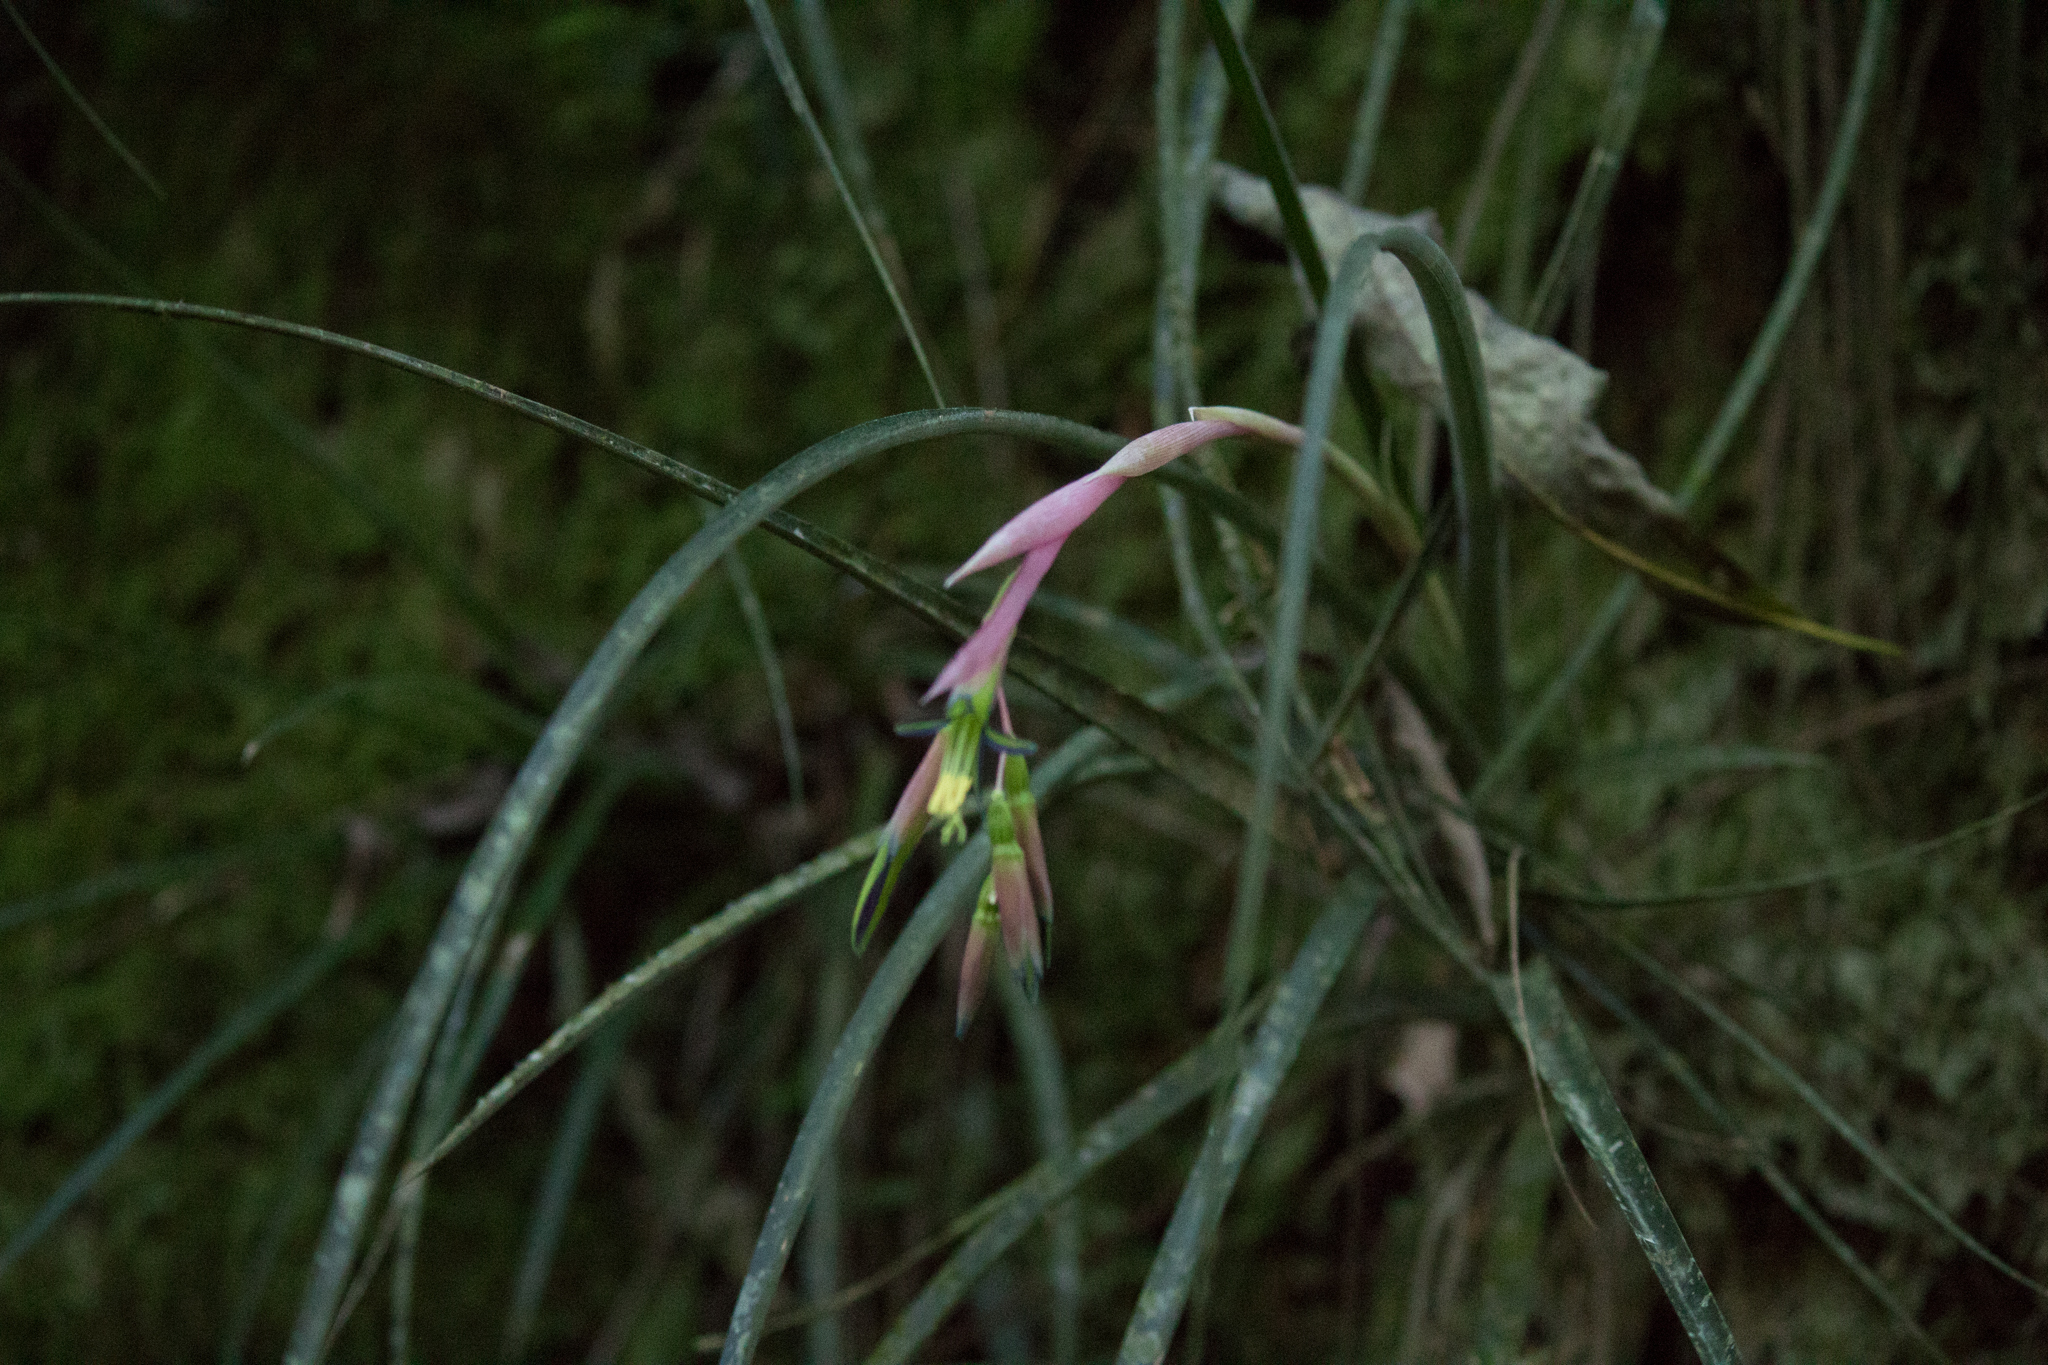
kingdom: Plantae
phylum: Tracheophyta
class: Liliopsida
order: Poales
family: Bromeliaceae
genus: Billbergia
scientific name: Billbergia nutans
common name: Friendship-plant
